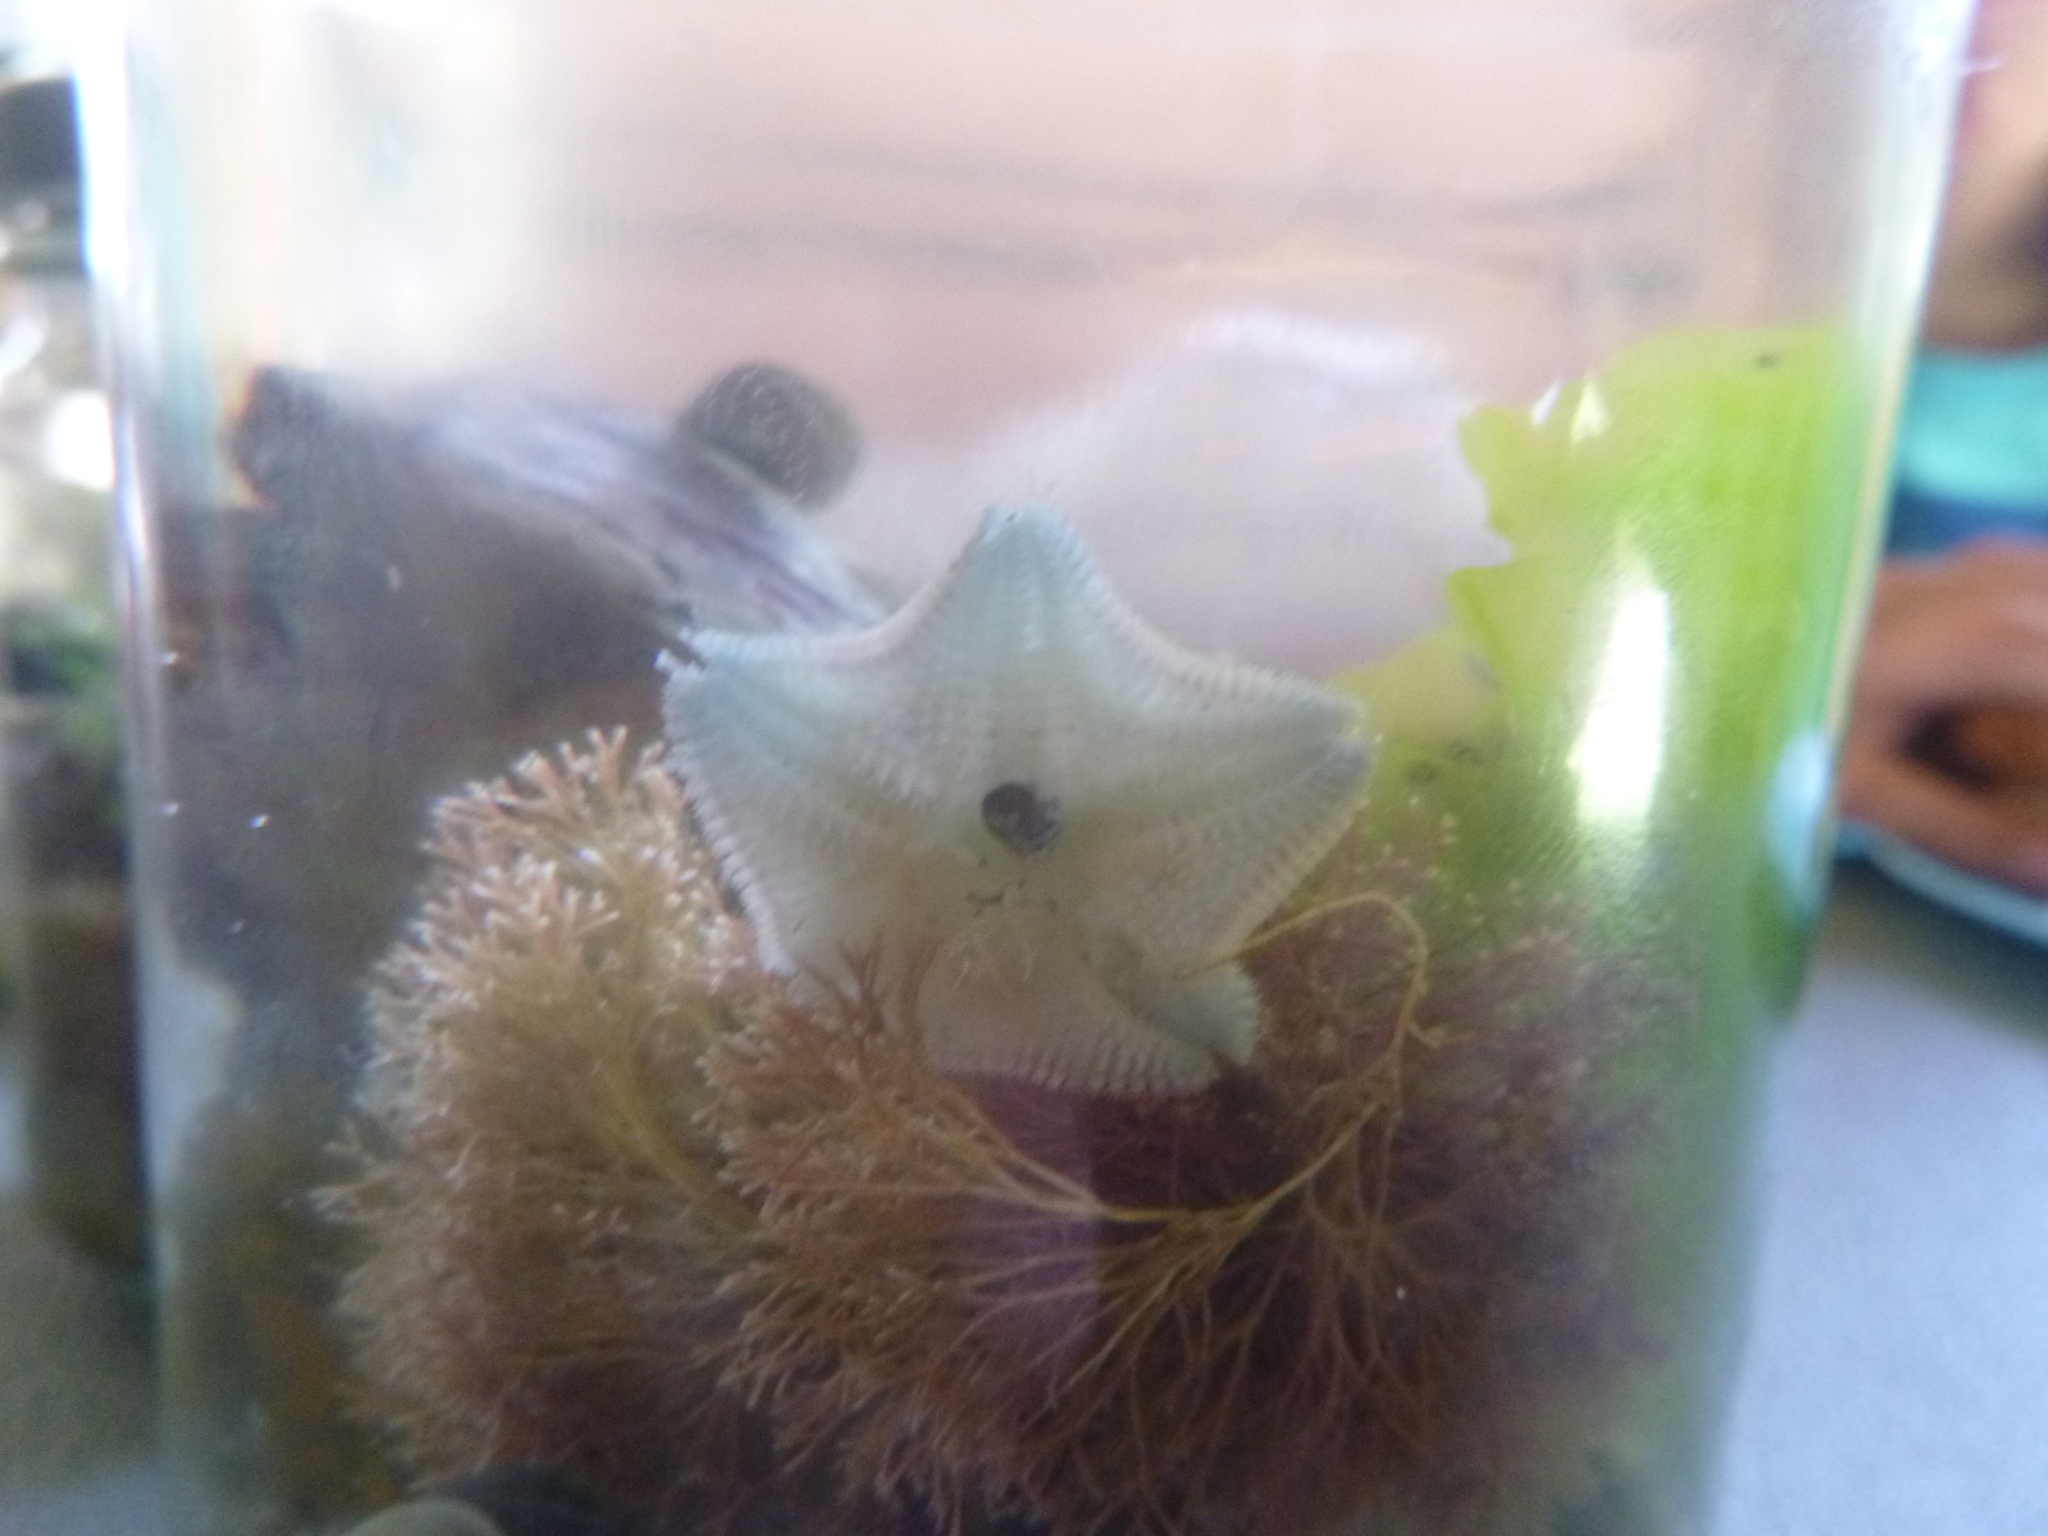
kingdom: Animalia
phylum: Echinodermata
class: Asteroidea
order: Valvatida
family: Asterinidae
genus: Patiriella
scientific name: Patiriella regularis
